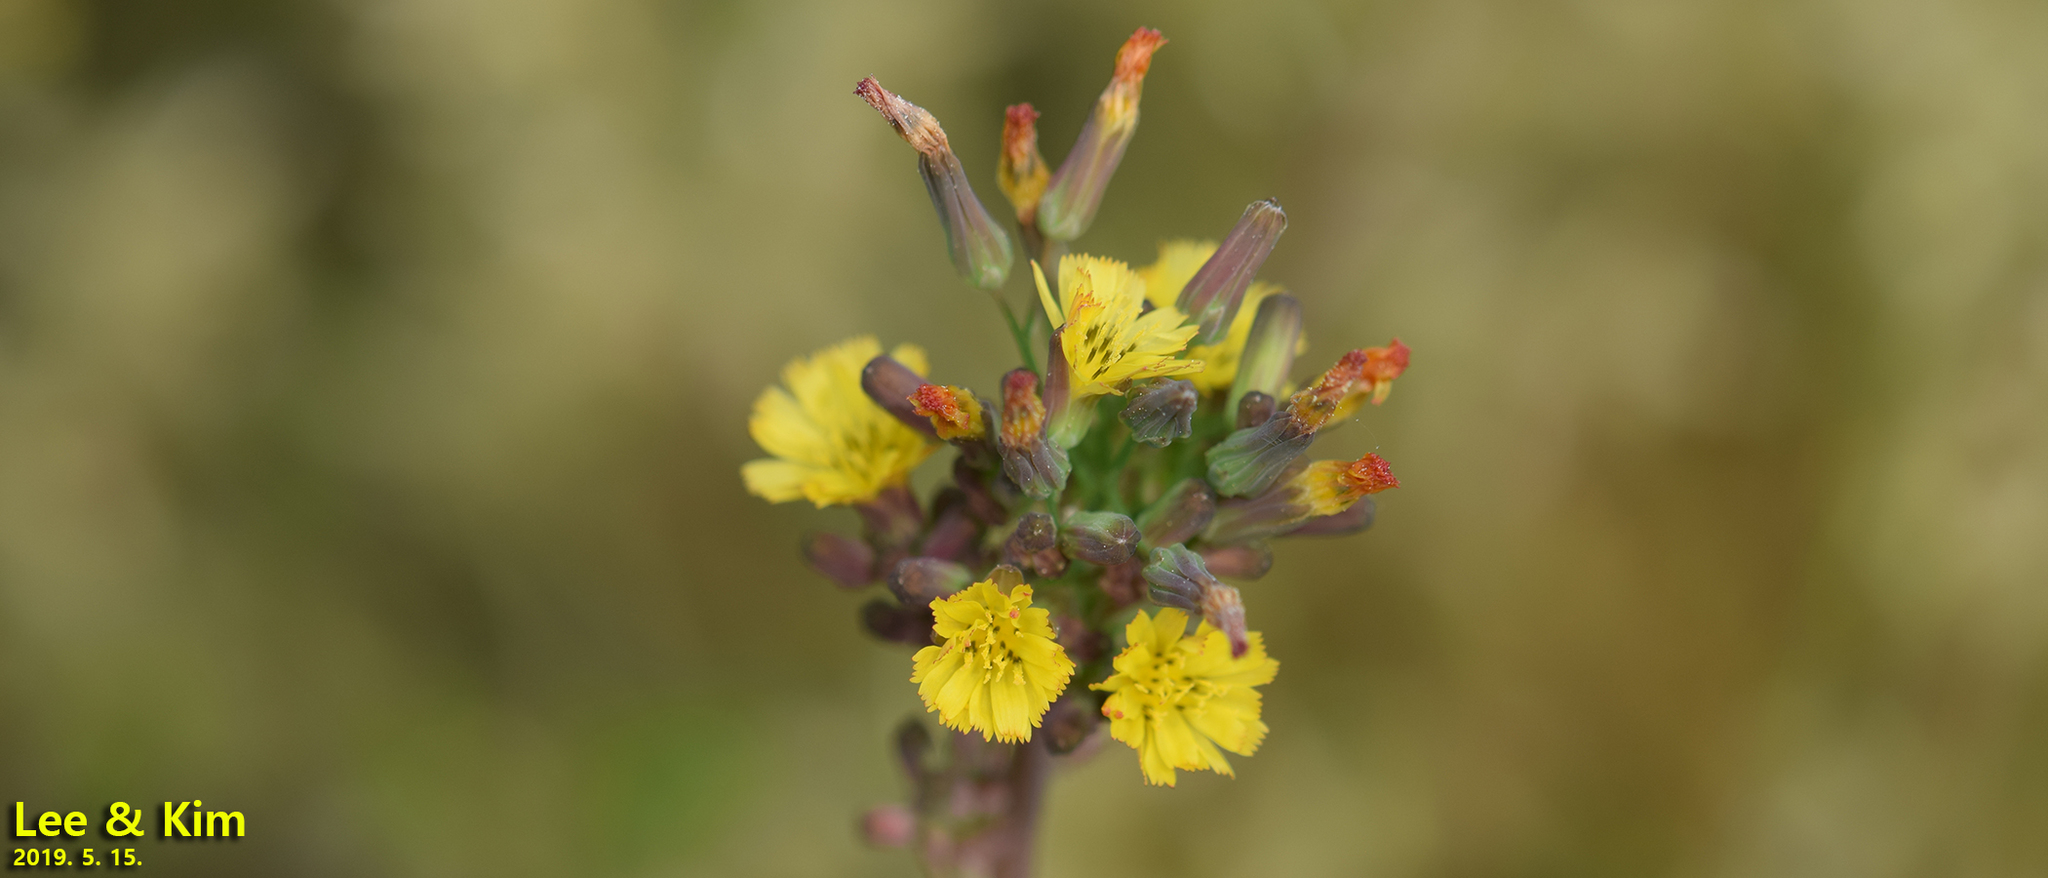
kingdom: Plantae
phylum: Tracheophyta
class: Magnoliopsida
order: Asterales
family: Asteraceae
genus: Youngia
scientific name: Youngia japonica
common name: Oriental false hawksbeard
